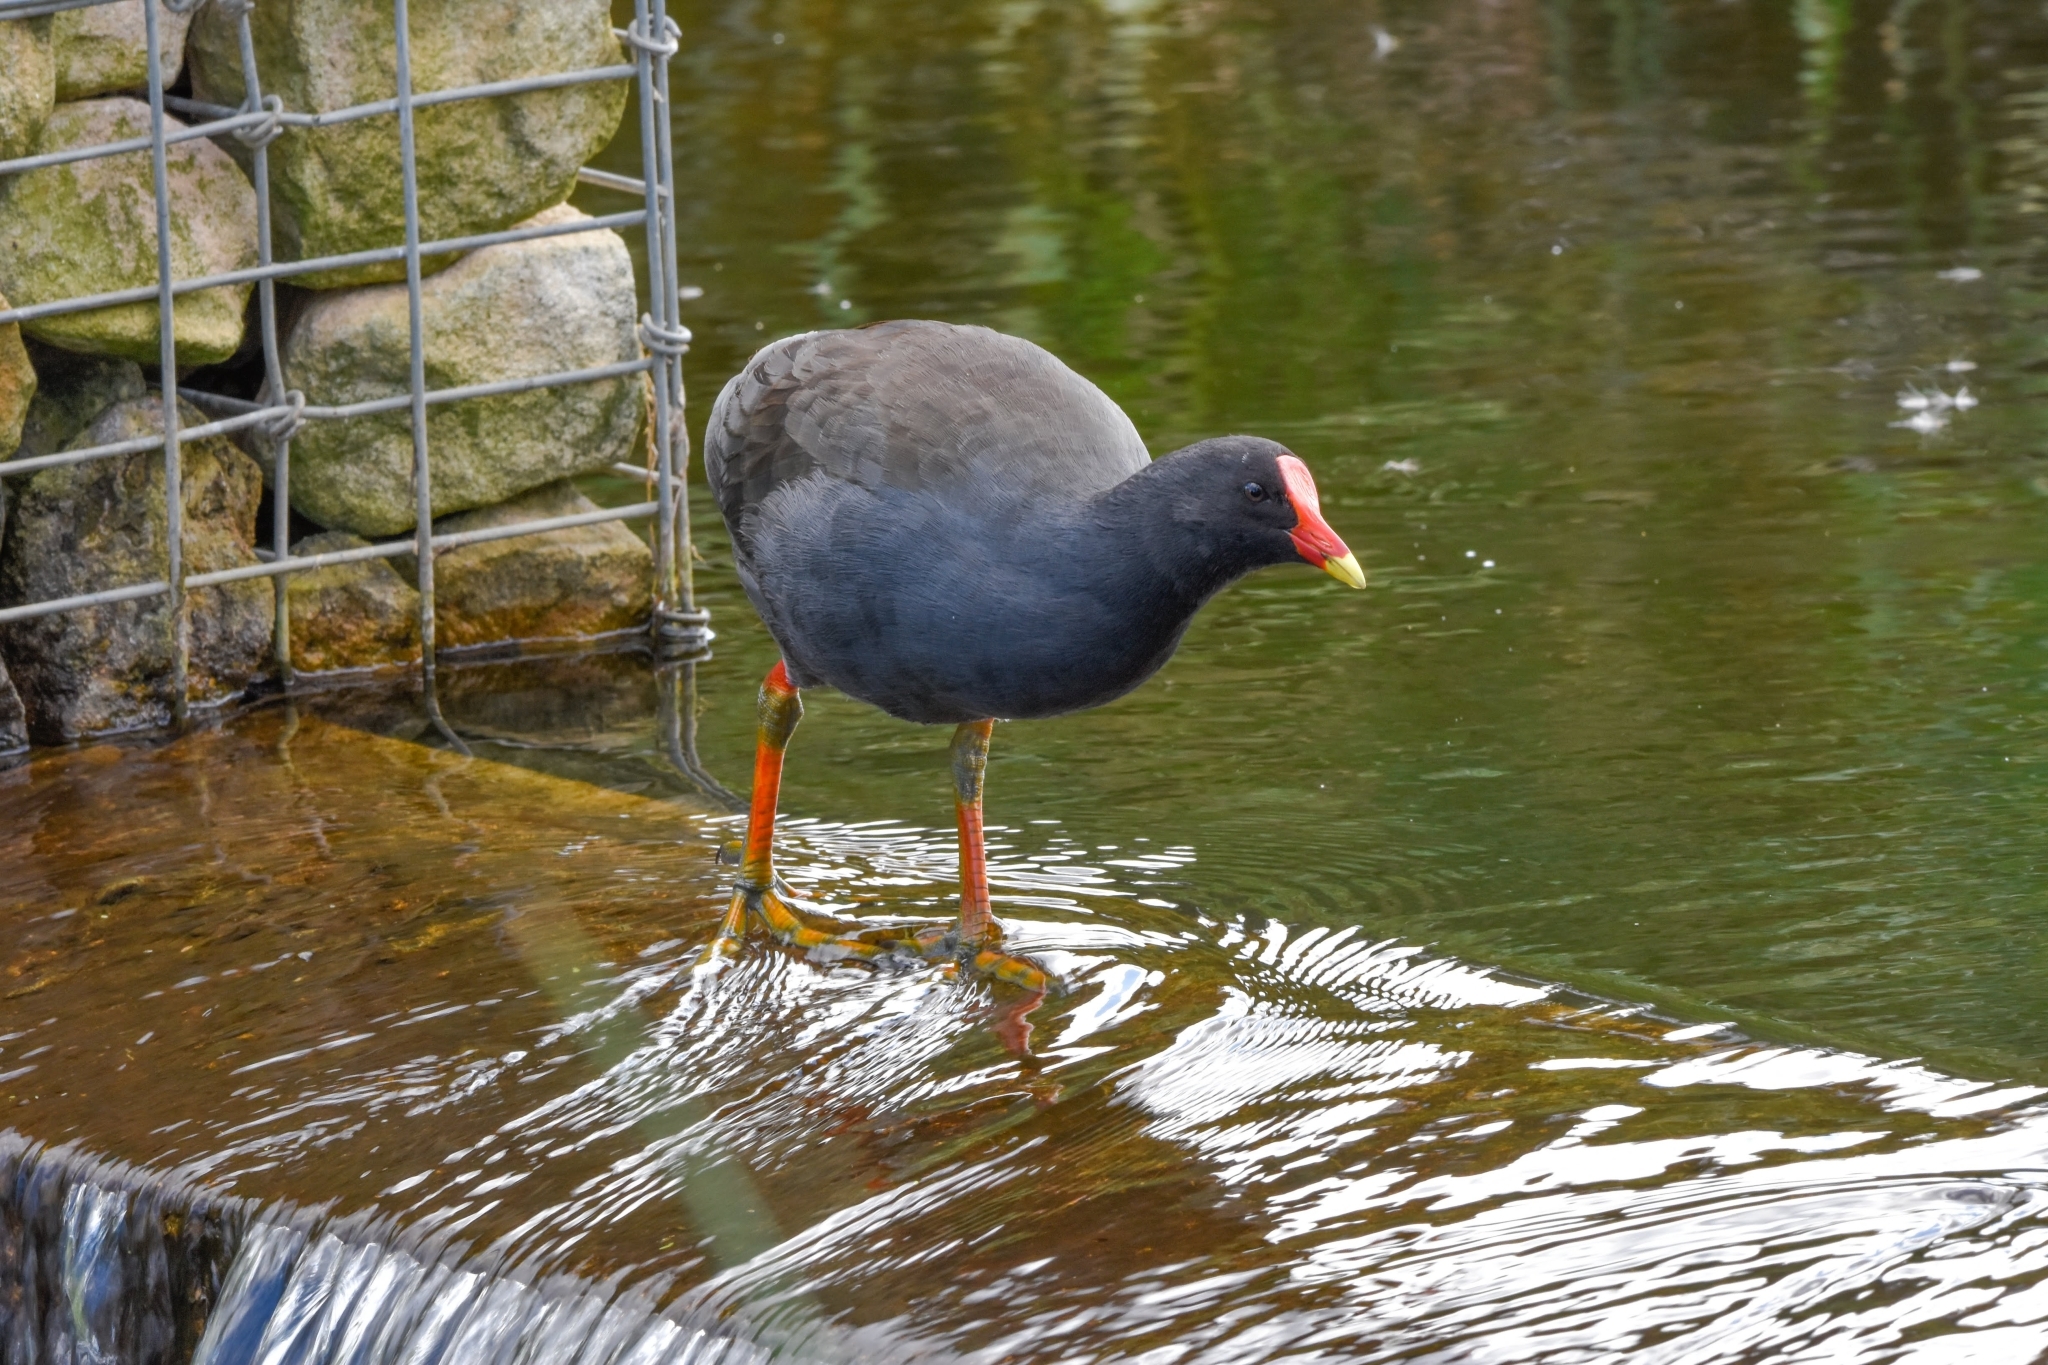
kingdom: Animalia
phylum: Chordata
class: Aves
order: Gruiformes
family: Rallidae
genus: Gallinula
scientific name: Gallinula tenebrosa
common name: Dusky moorhen
